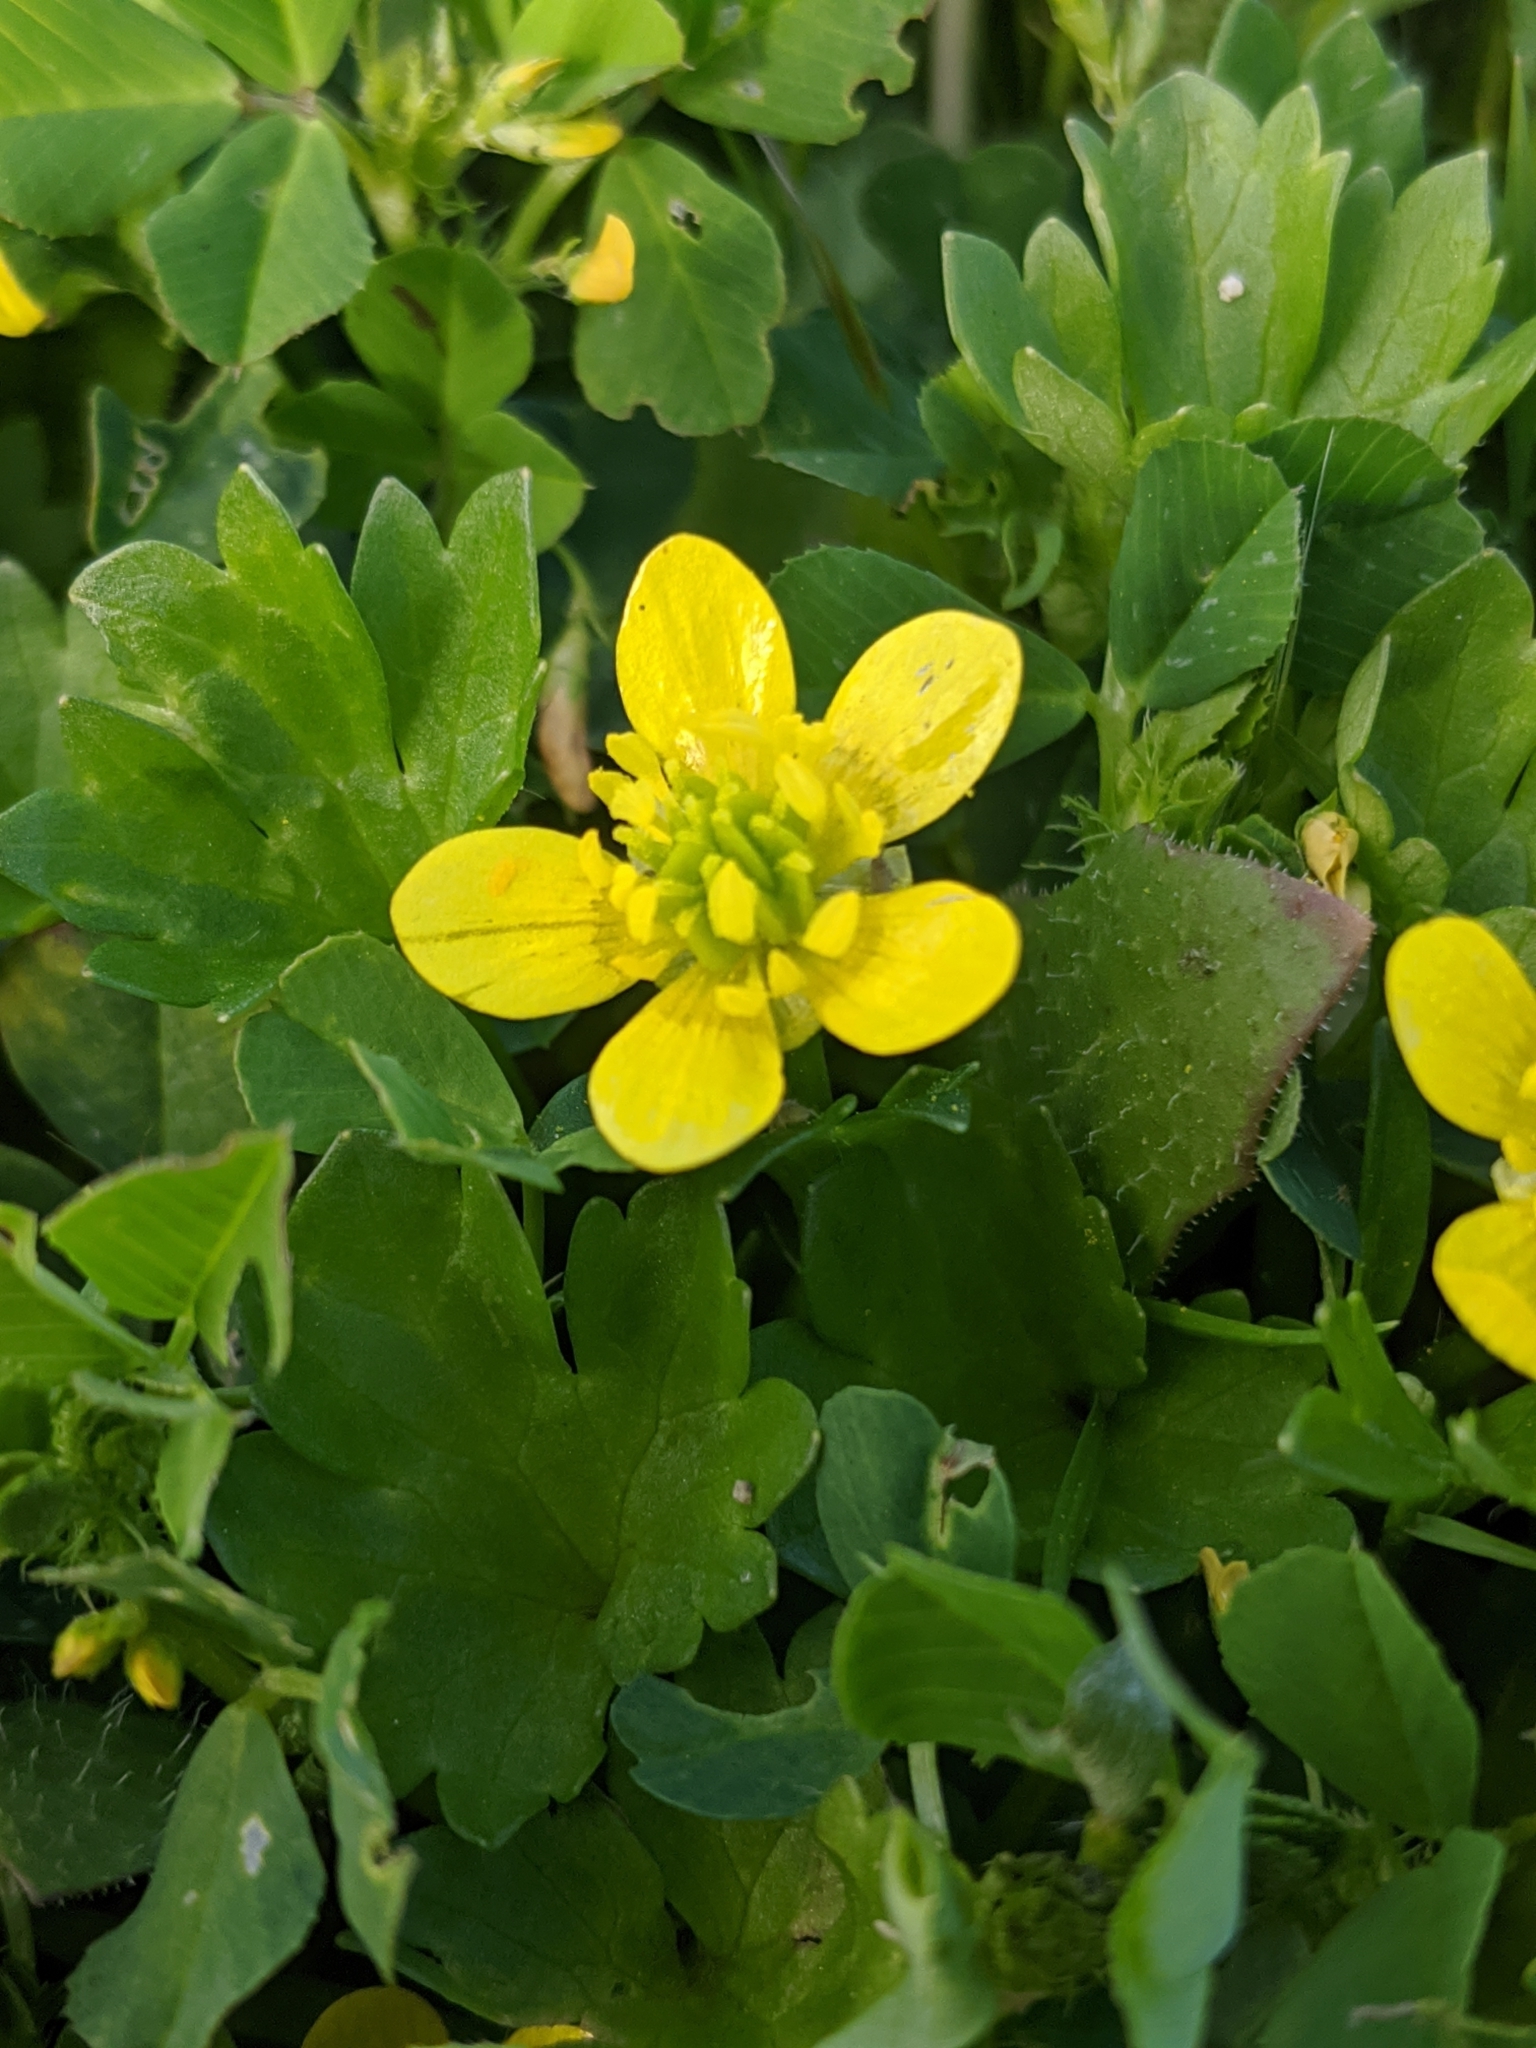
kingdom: Plantae
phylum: Tracheophyta
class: Magnoliopsida
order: Ranunculales
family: Ranunculaceae
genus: Ranunculus
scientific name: Ranunculus muricatus
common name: Rough-fruited buttercup
